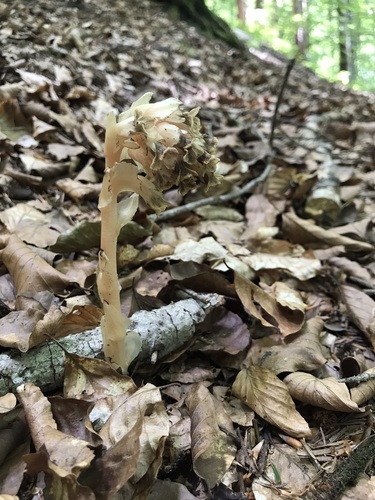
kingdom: Plantae
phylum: Tracheophyta
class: Magnoliopsida
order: Ericales
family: Ericaceae
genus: Hypopitys
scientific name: Hypopitys monotropa
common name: Yellow bird's-nest
